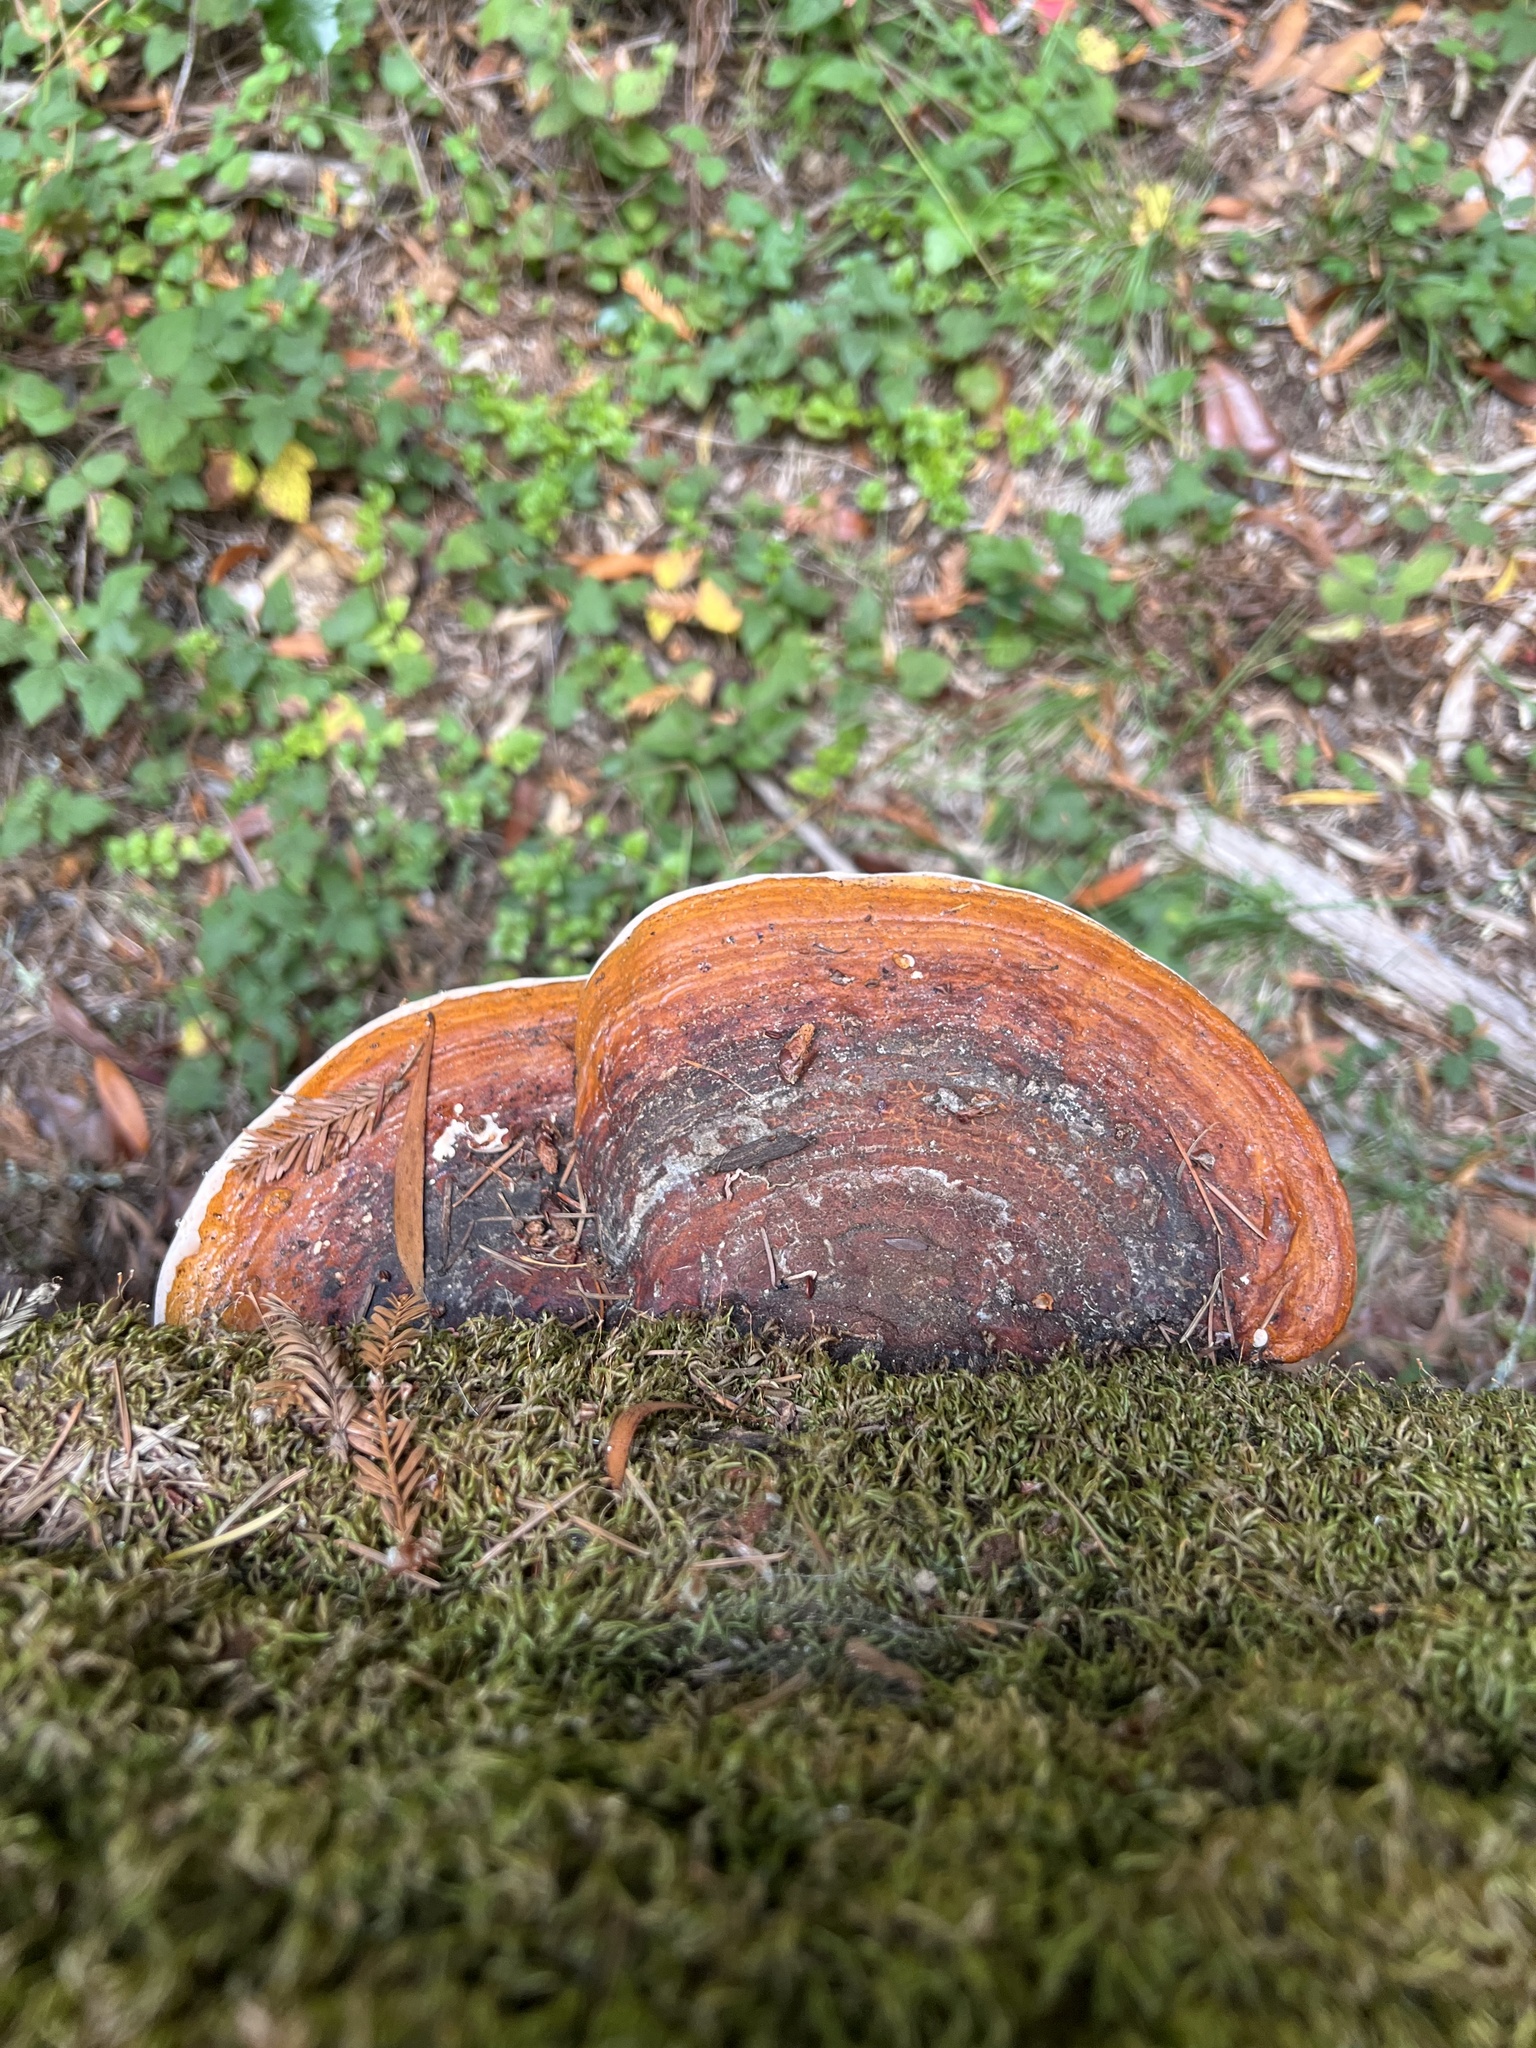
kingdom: Fungi
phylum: Basidiomycota
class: Agaricomycetes
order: Polyporales
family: Fomitopsidaceae
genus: Fomitopsis
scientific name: Fomitopsis mounceae
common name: Northern red belt
